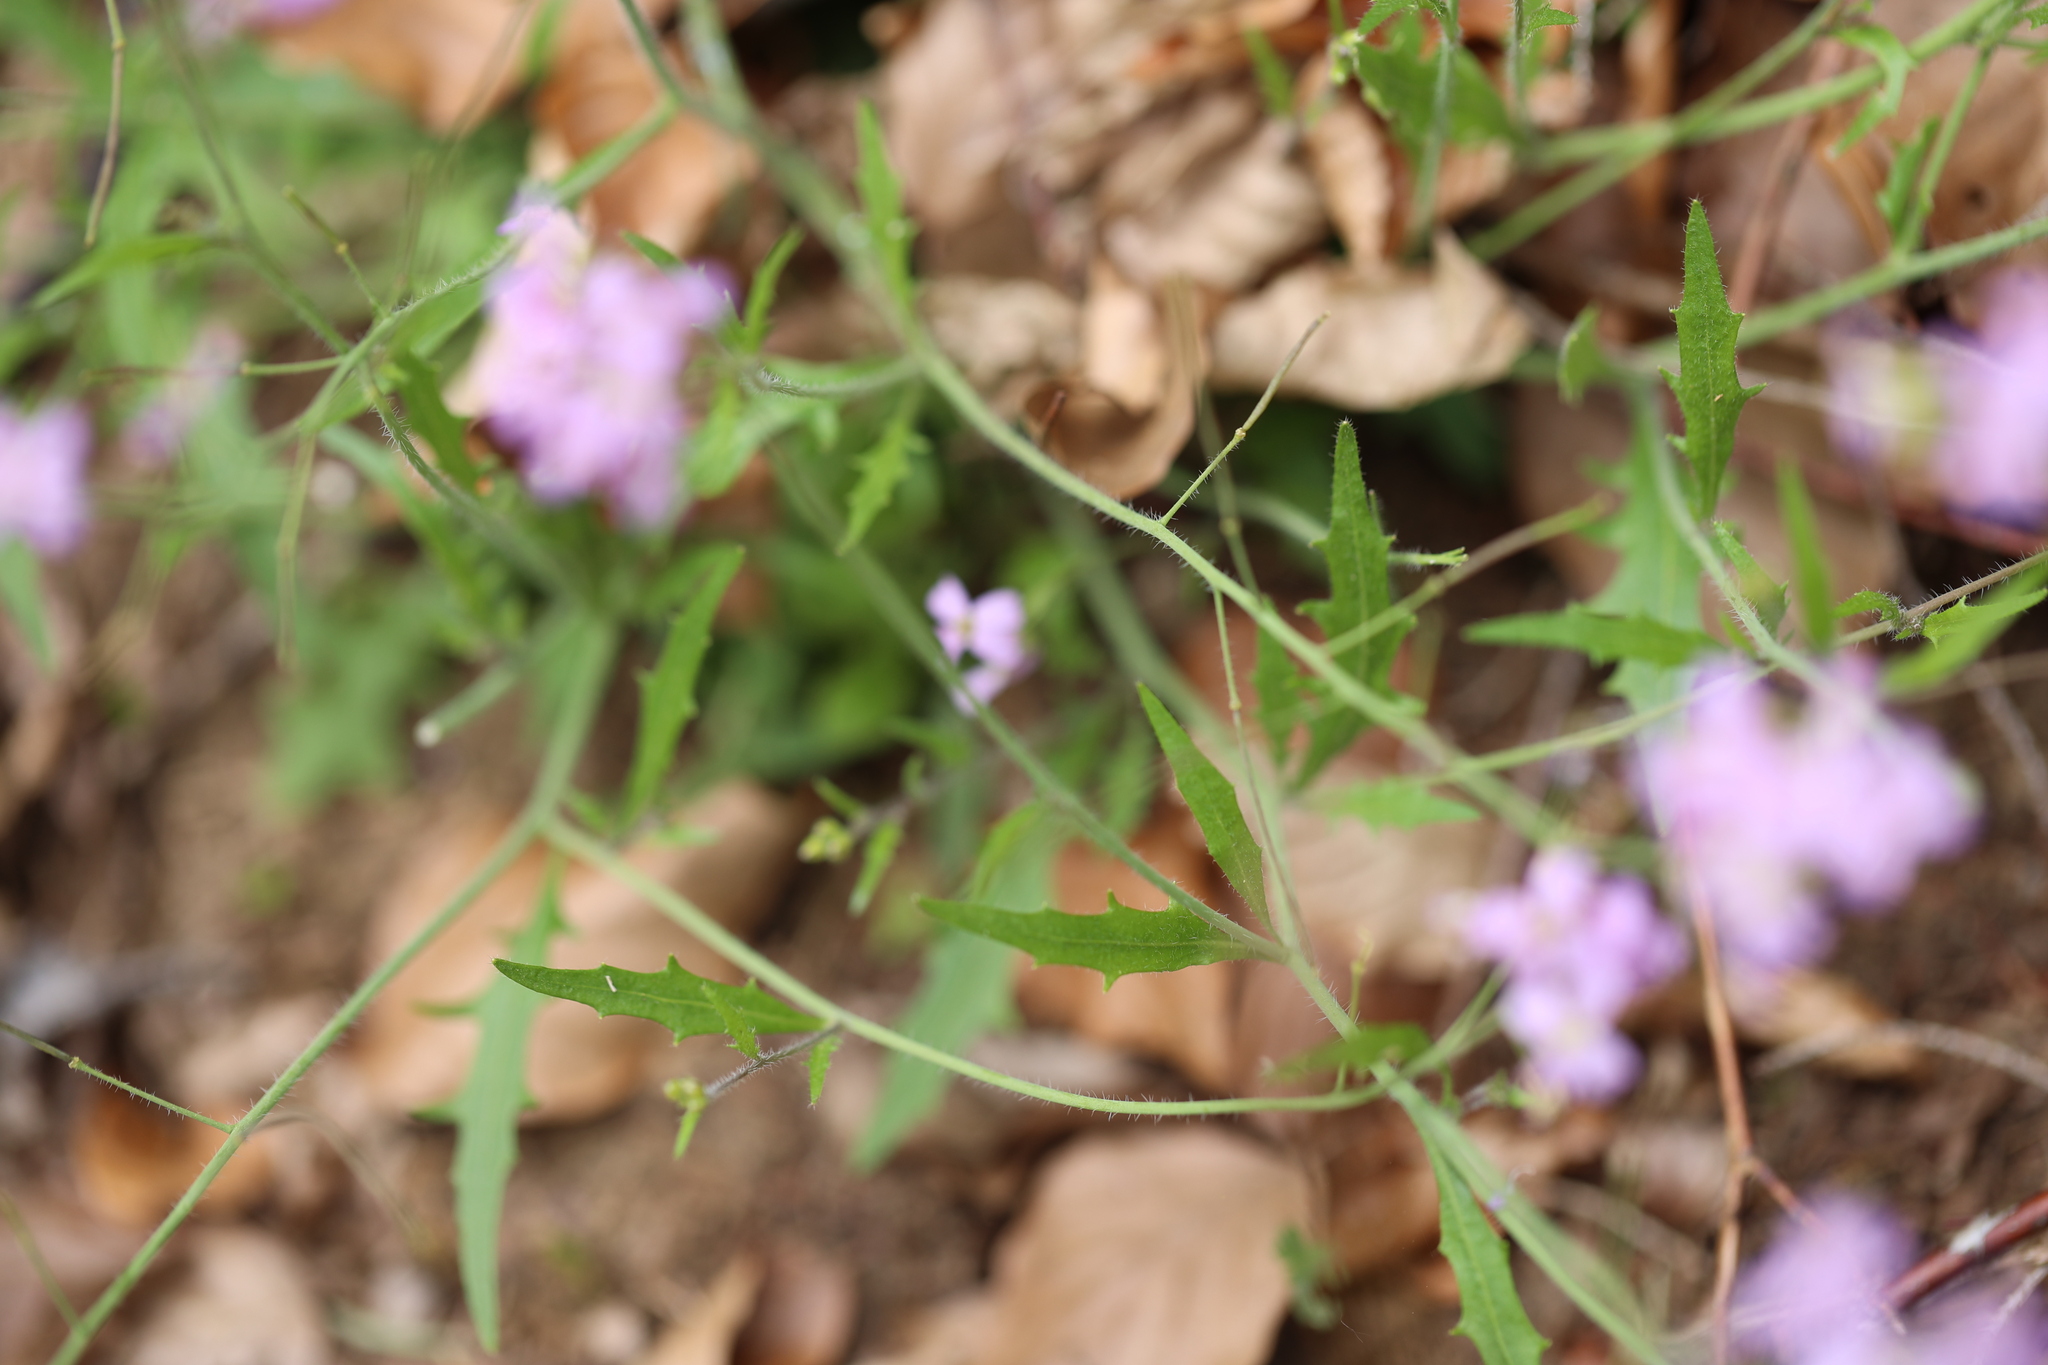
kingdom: Plantae
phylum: Tracheophyta
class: Magnoliopsida
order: Brassicales
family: Brassicaceae
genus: Arabidopsis
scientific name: Arabidopsis arenosa
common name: Sand rock-cress
